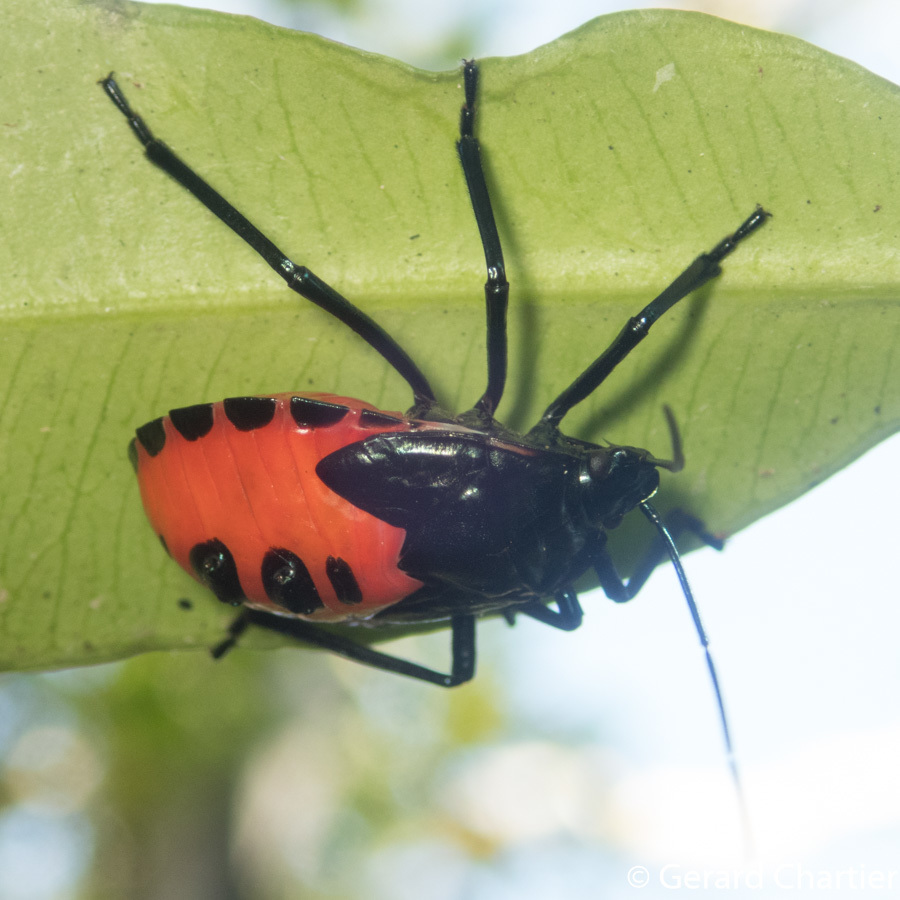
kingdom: Animalia
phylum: Arthropoda
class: Insecta
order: Hemiptera
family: Pentatomidae
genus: Catacanthus
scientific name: Catacanthus incarnatus
